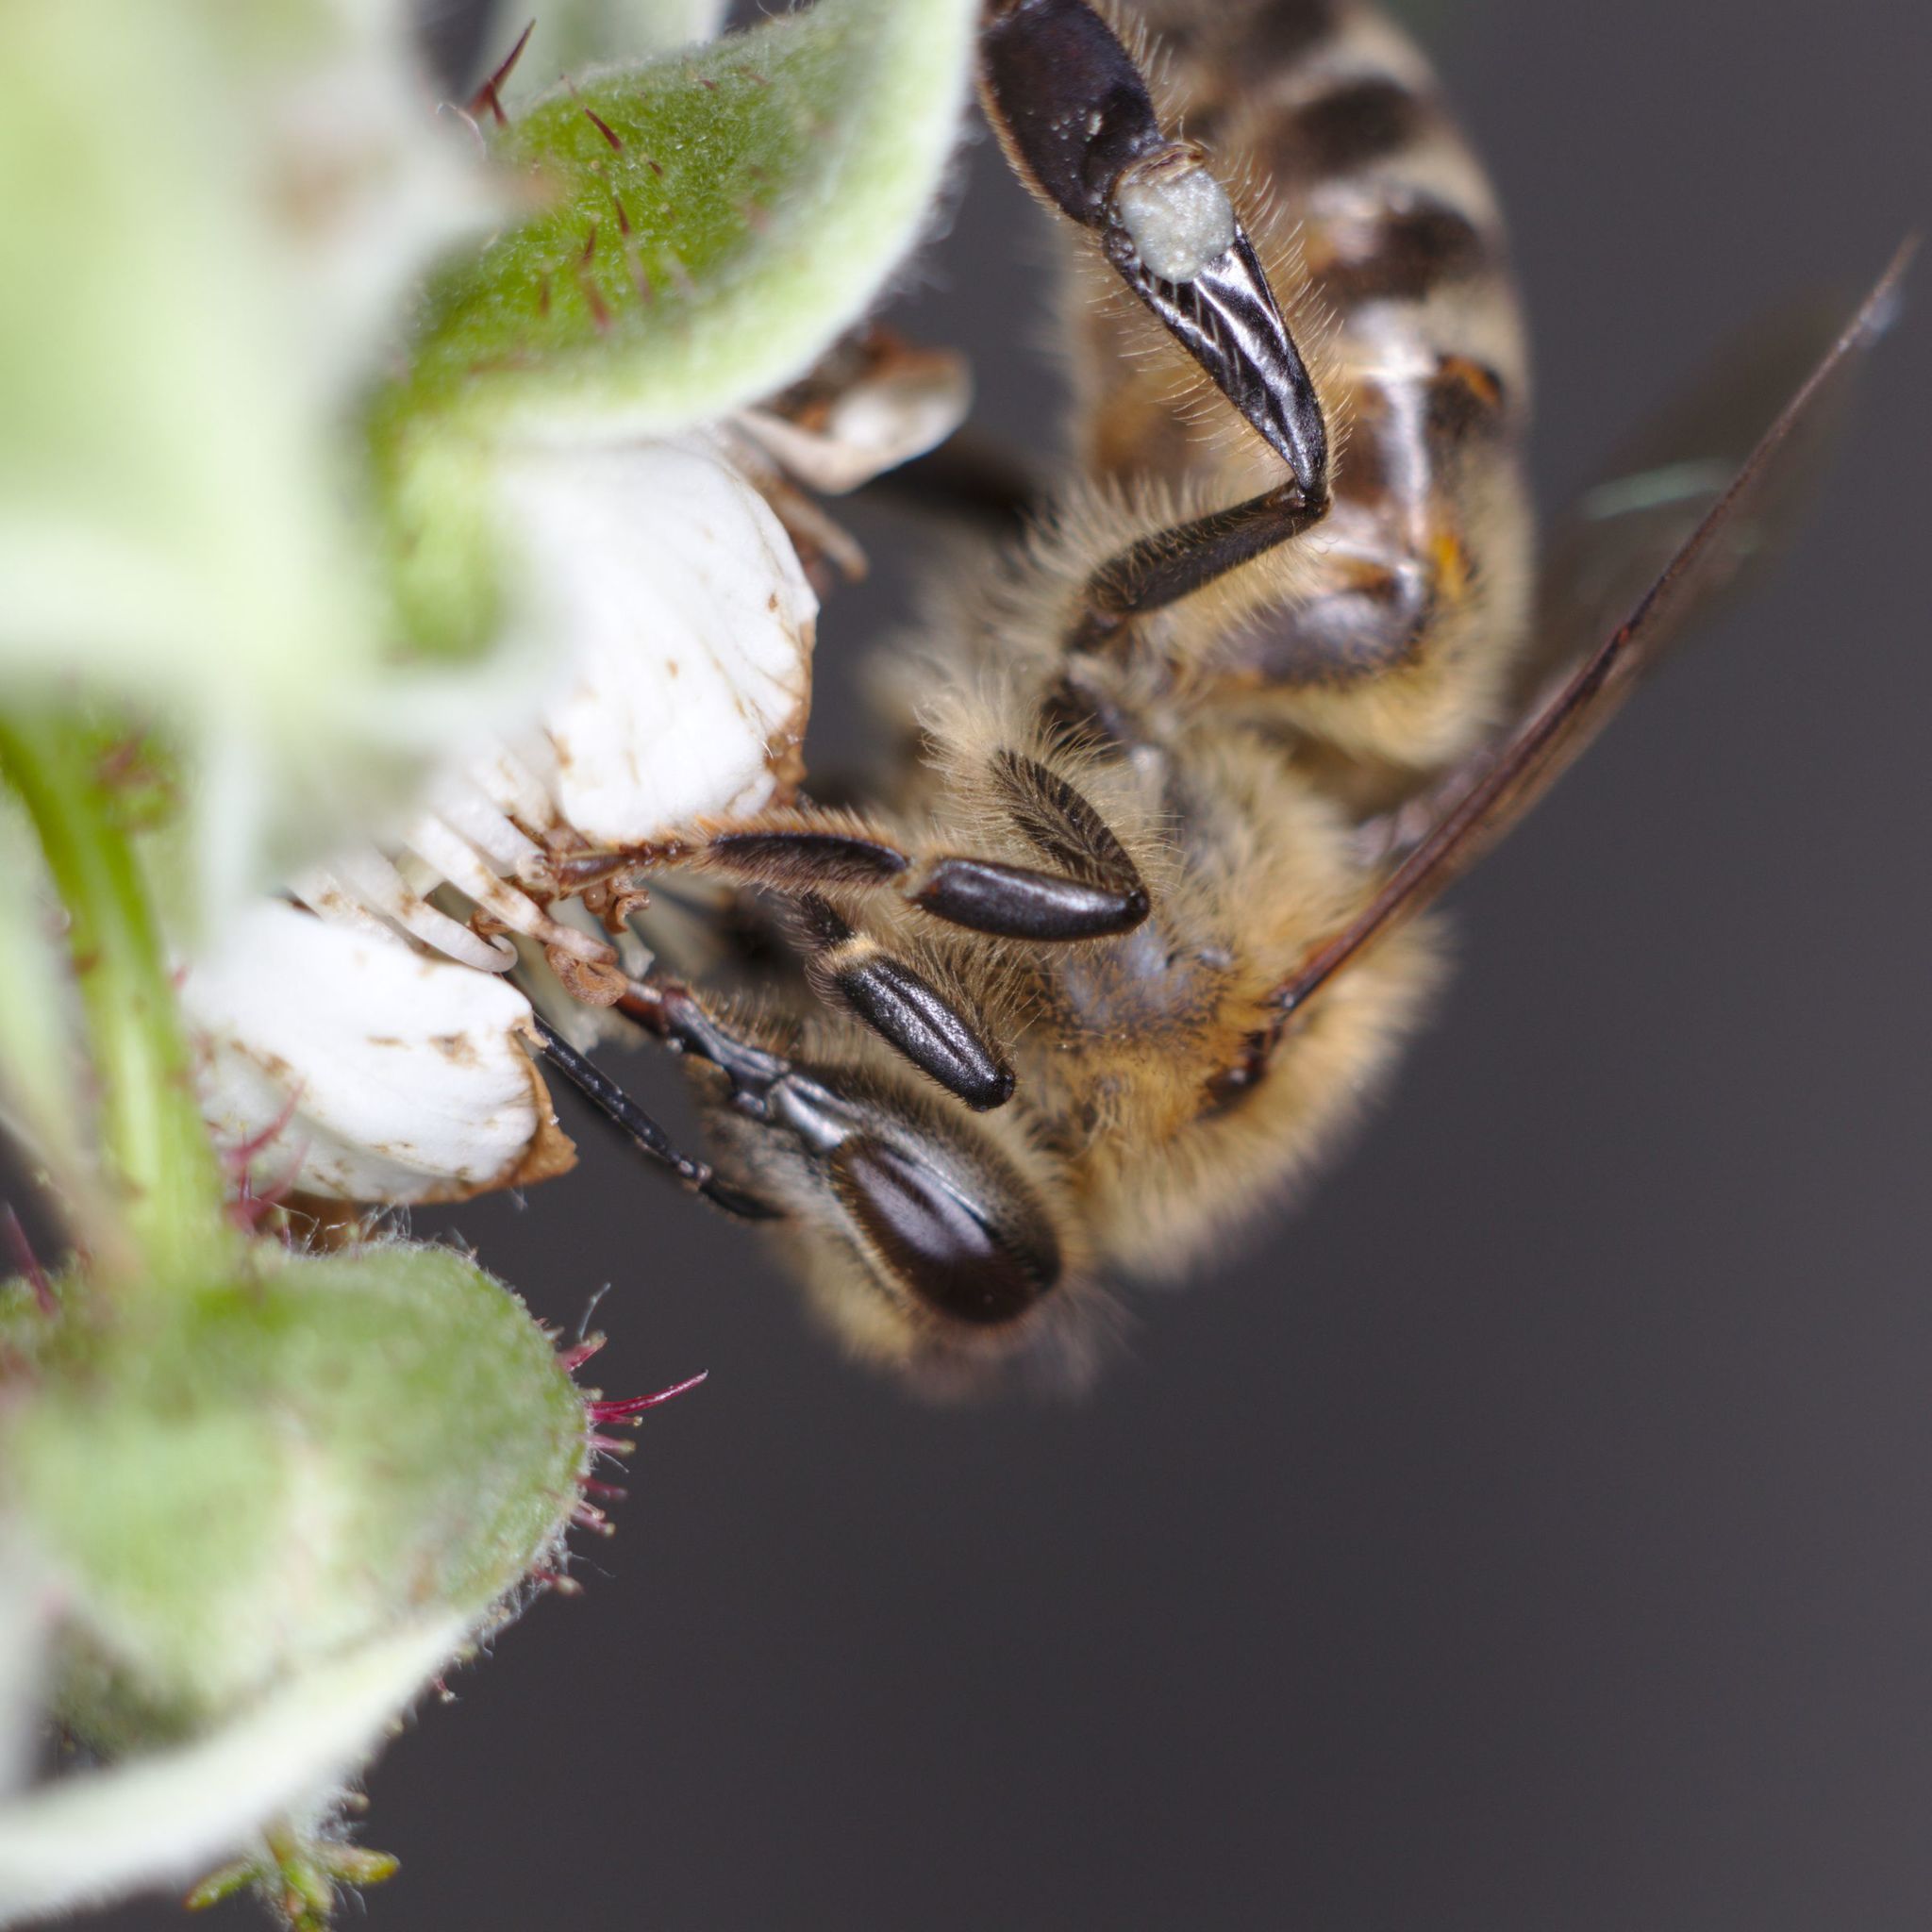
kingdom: Animalia
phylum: Arthropoda
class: Insecta
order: Hymenoptera
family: Apidae
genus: Apis
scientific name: Apis mellifera
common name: Honey bee
